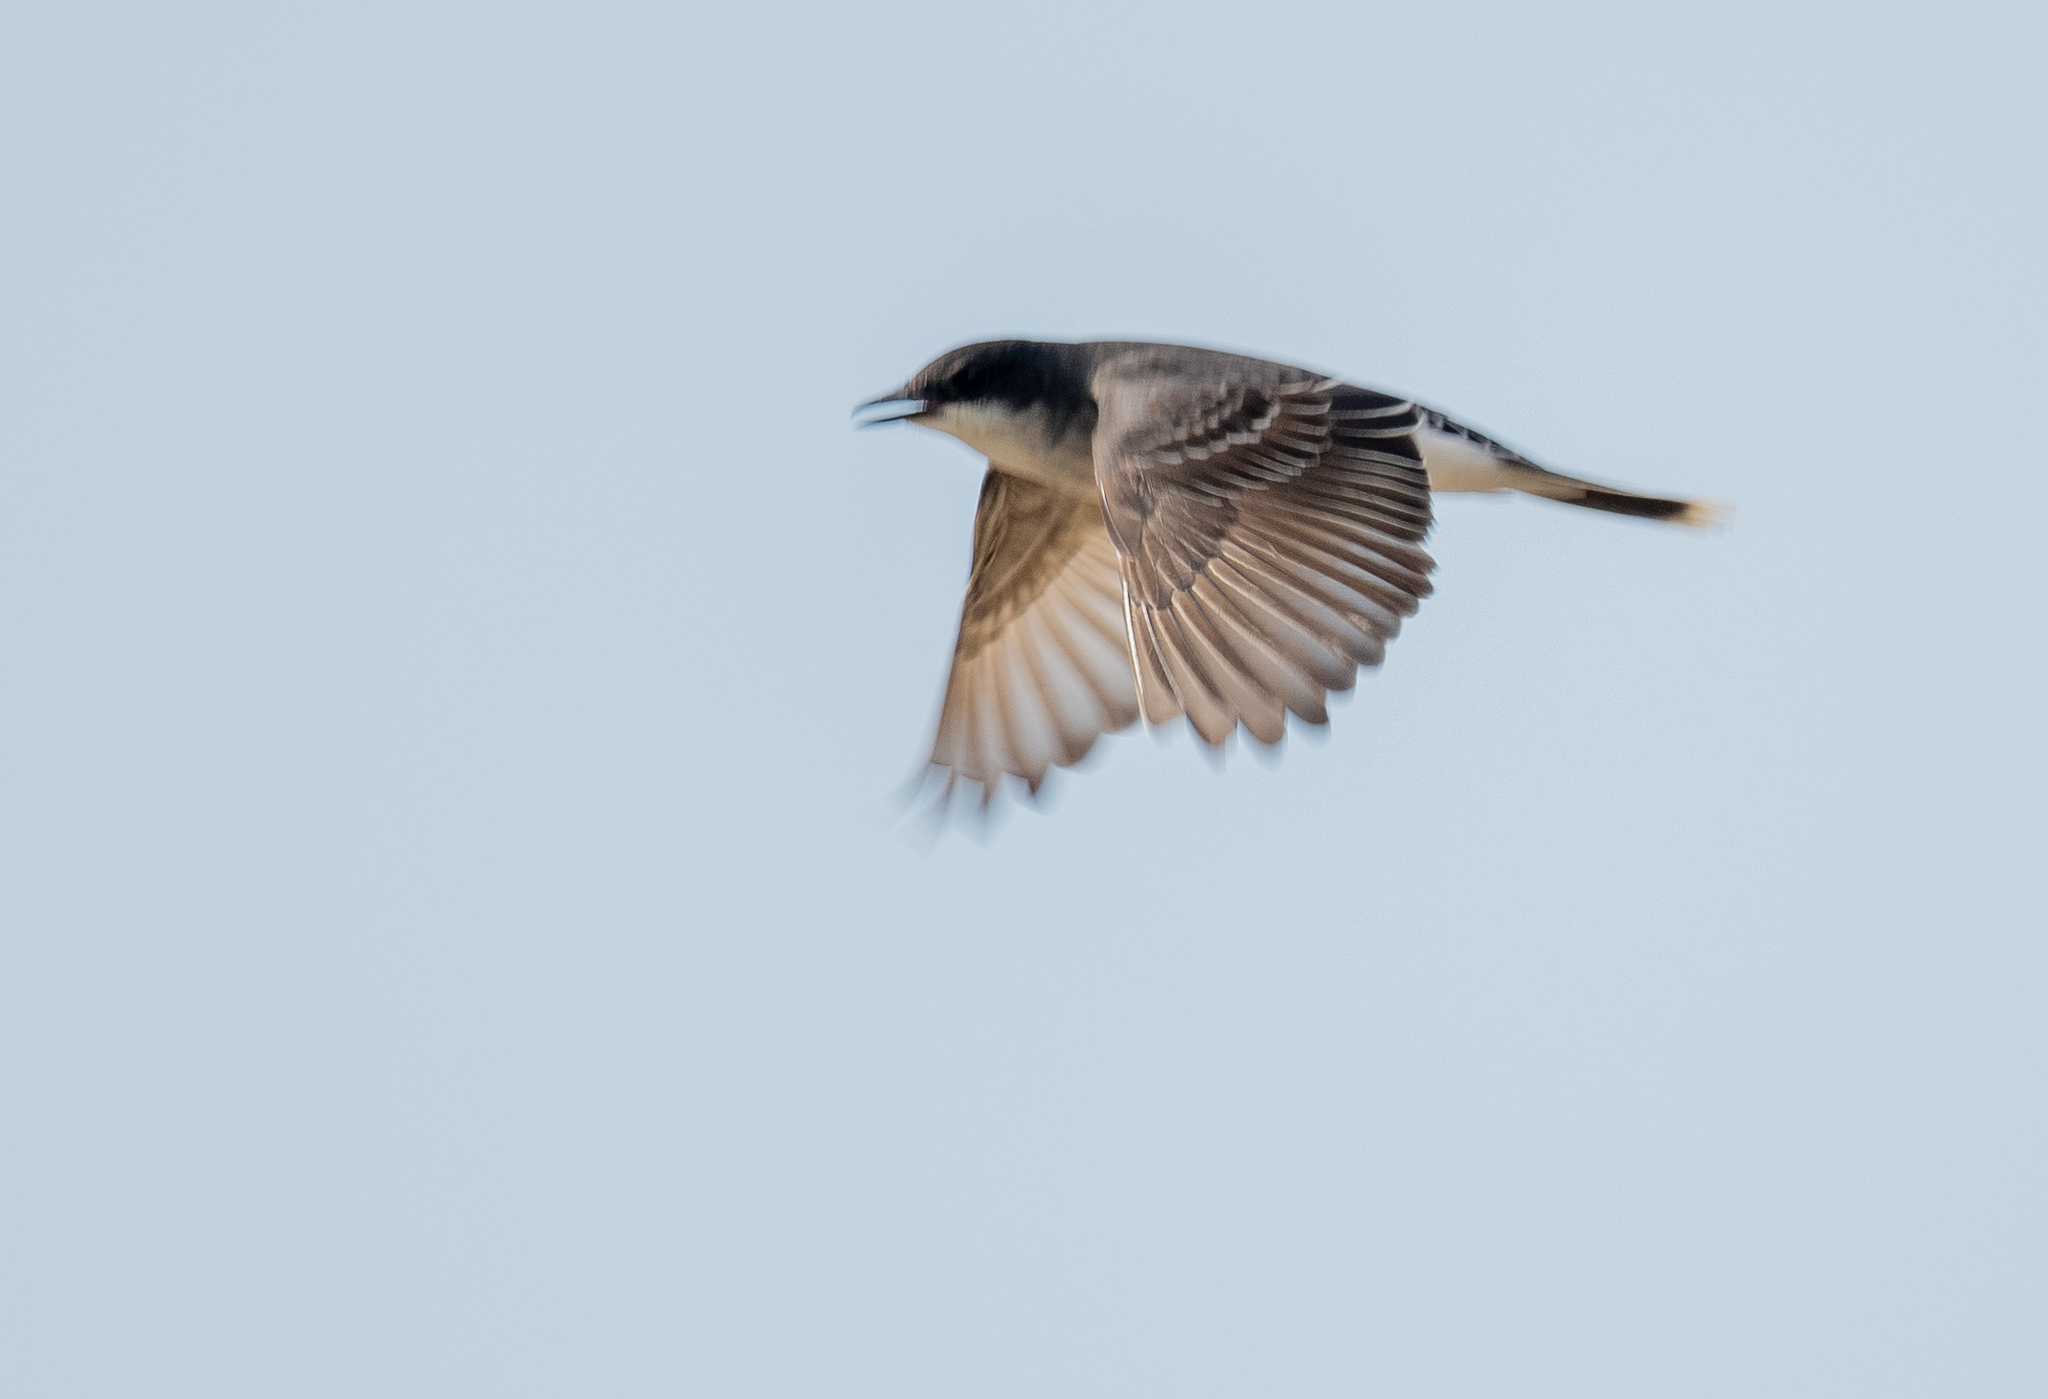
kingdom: Animalia
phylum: Chordata
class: Aves
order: Passeriformes
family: Tyrannidae
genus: Tyrannus
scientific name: Tyrannus tyrannus
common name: Eastern kingbird
